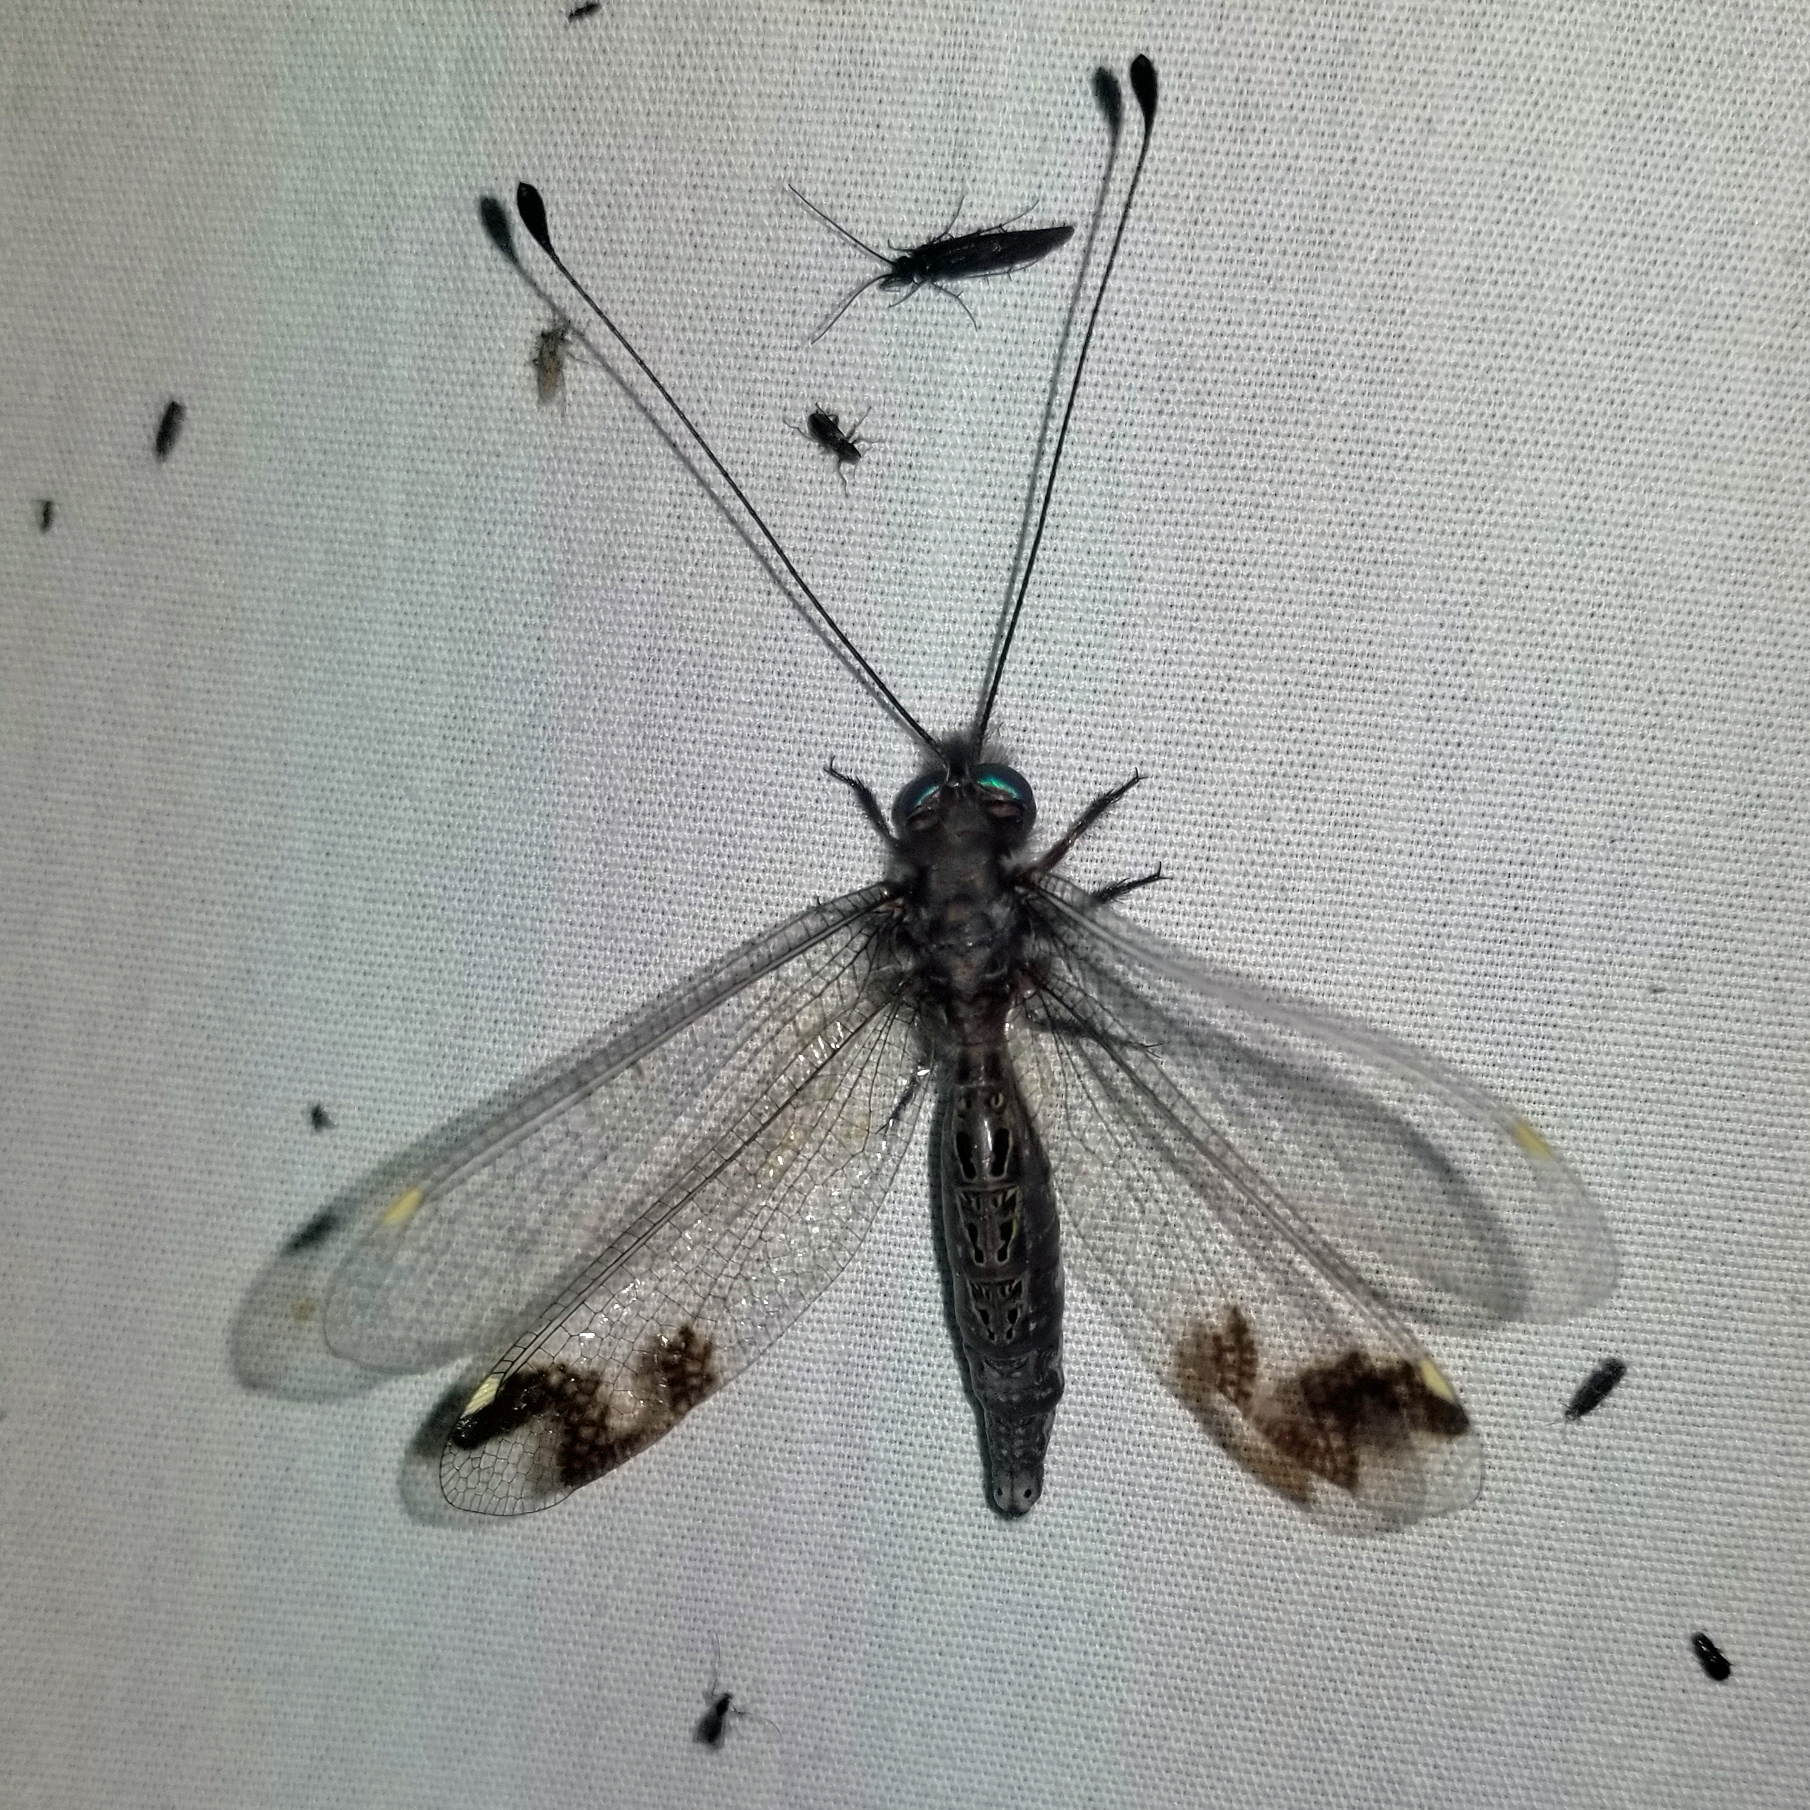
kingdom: Animalia
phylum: Arthropoda
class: Insecta
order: Neuroptera
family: Ascalaphidae
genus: Ululodes
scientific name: Ululodes quadripunctatus
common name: Four-spotted owlfly
